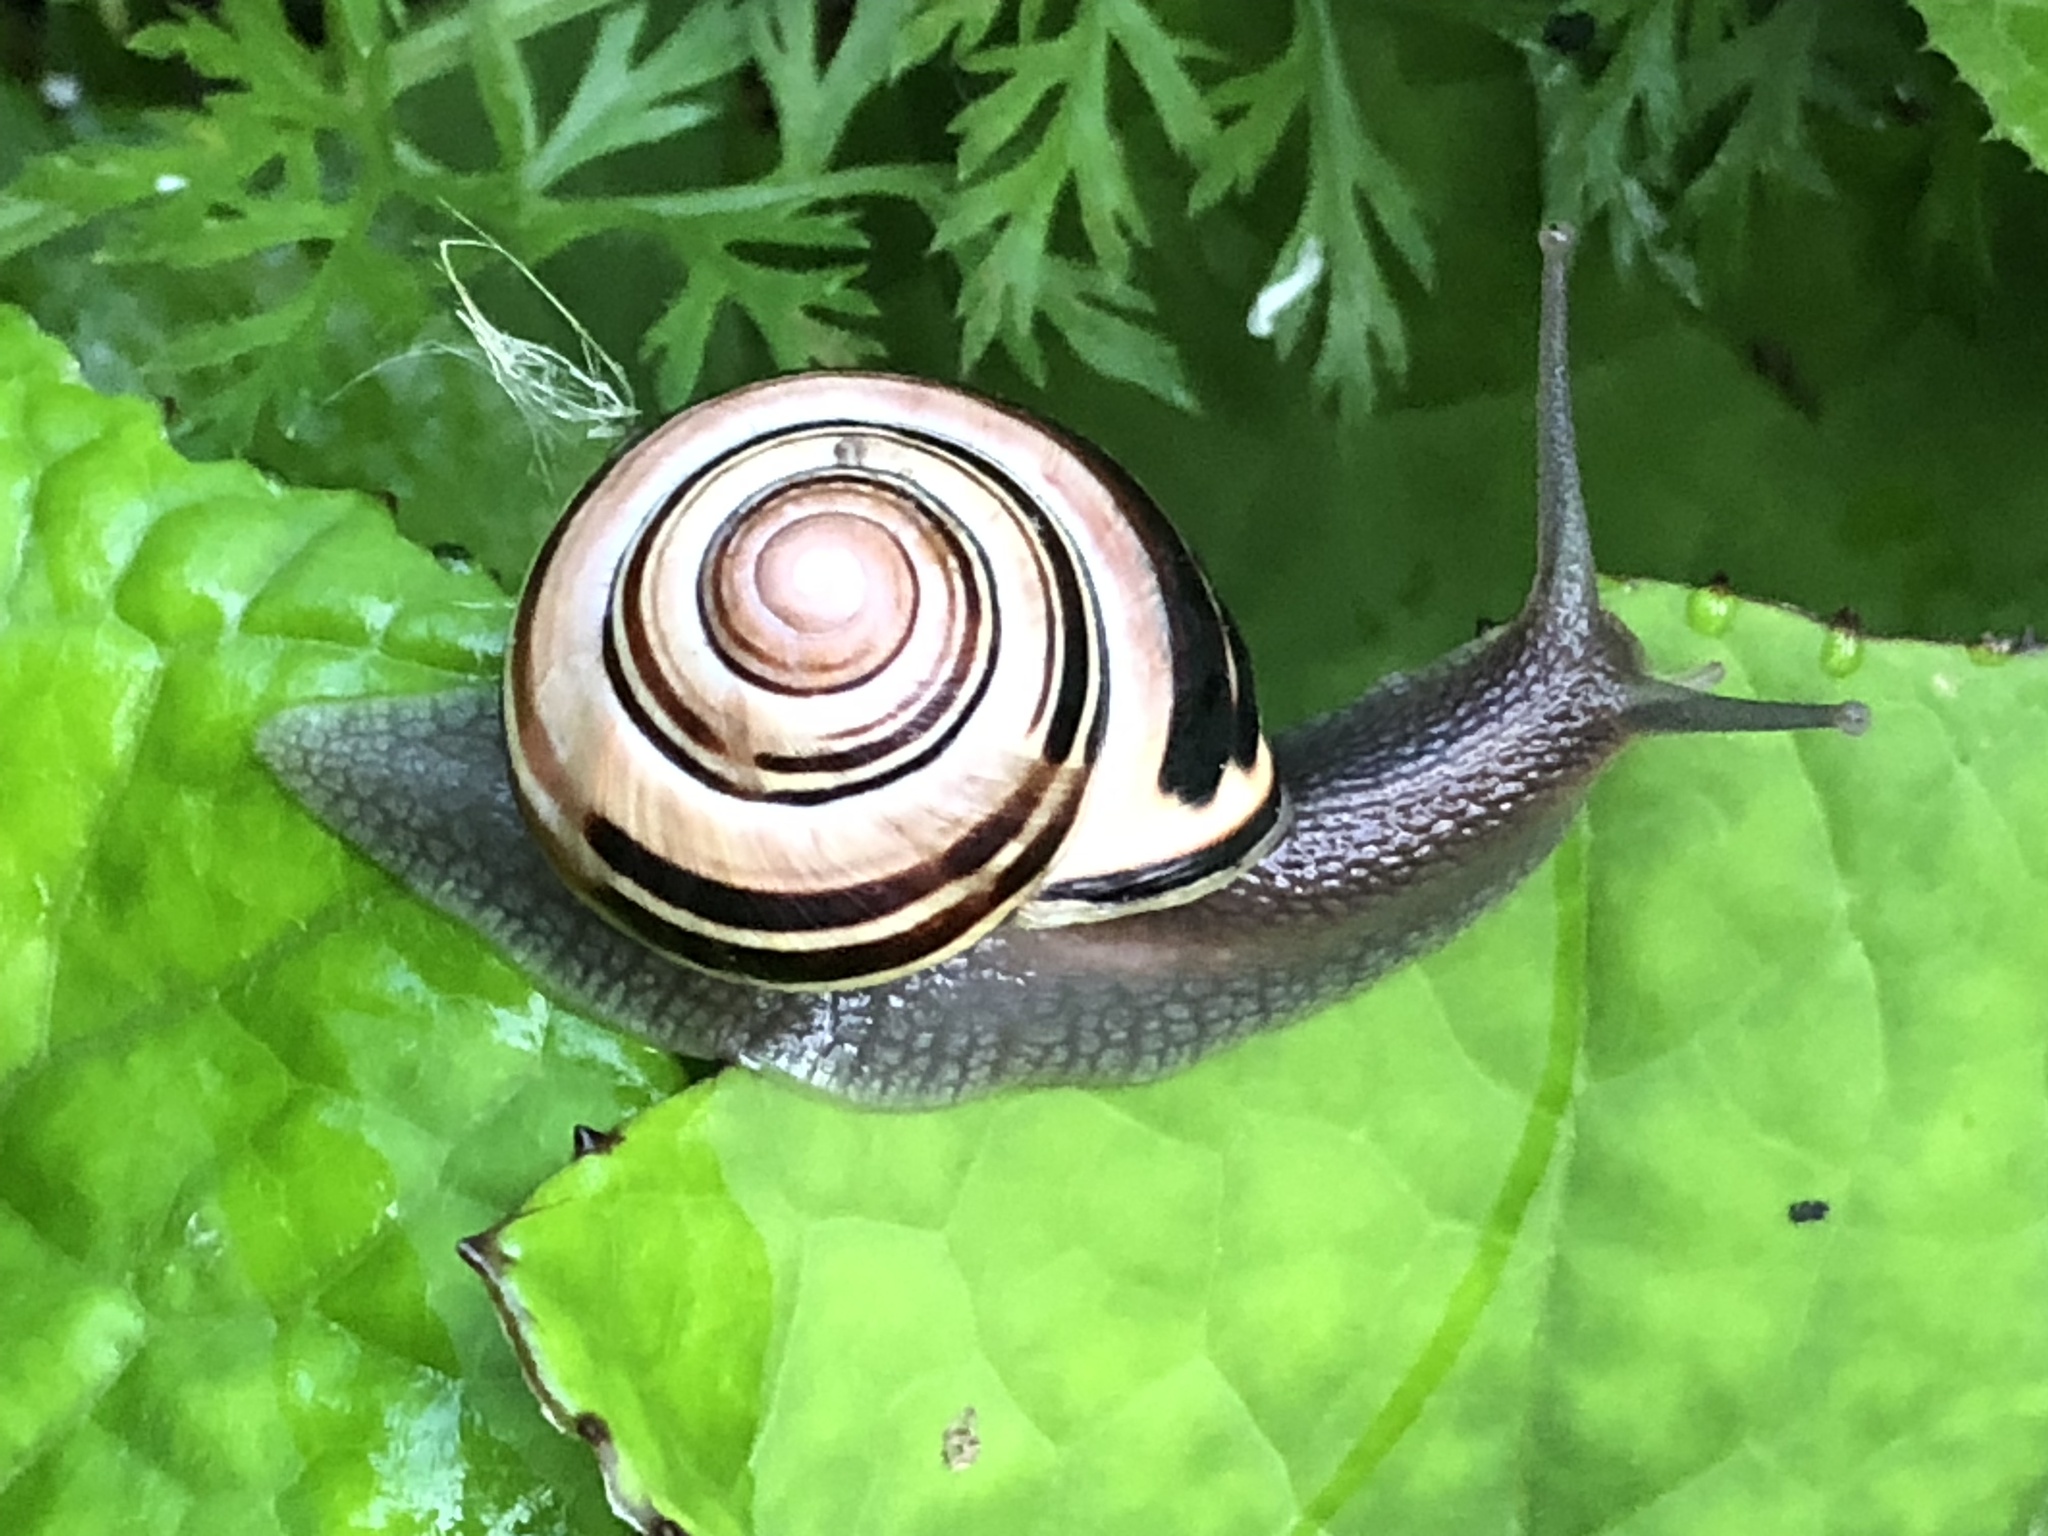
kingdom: Animalia
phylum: Mollusca
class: Gastropoda
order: Stylommatophora
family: Helicidae
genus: Cepaea
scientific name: Cepaea nemoralis
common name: Grovesnail
